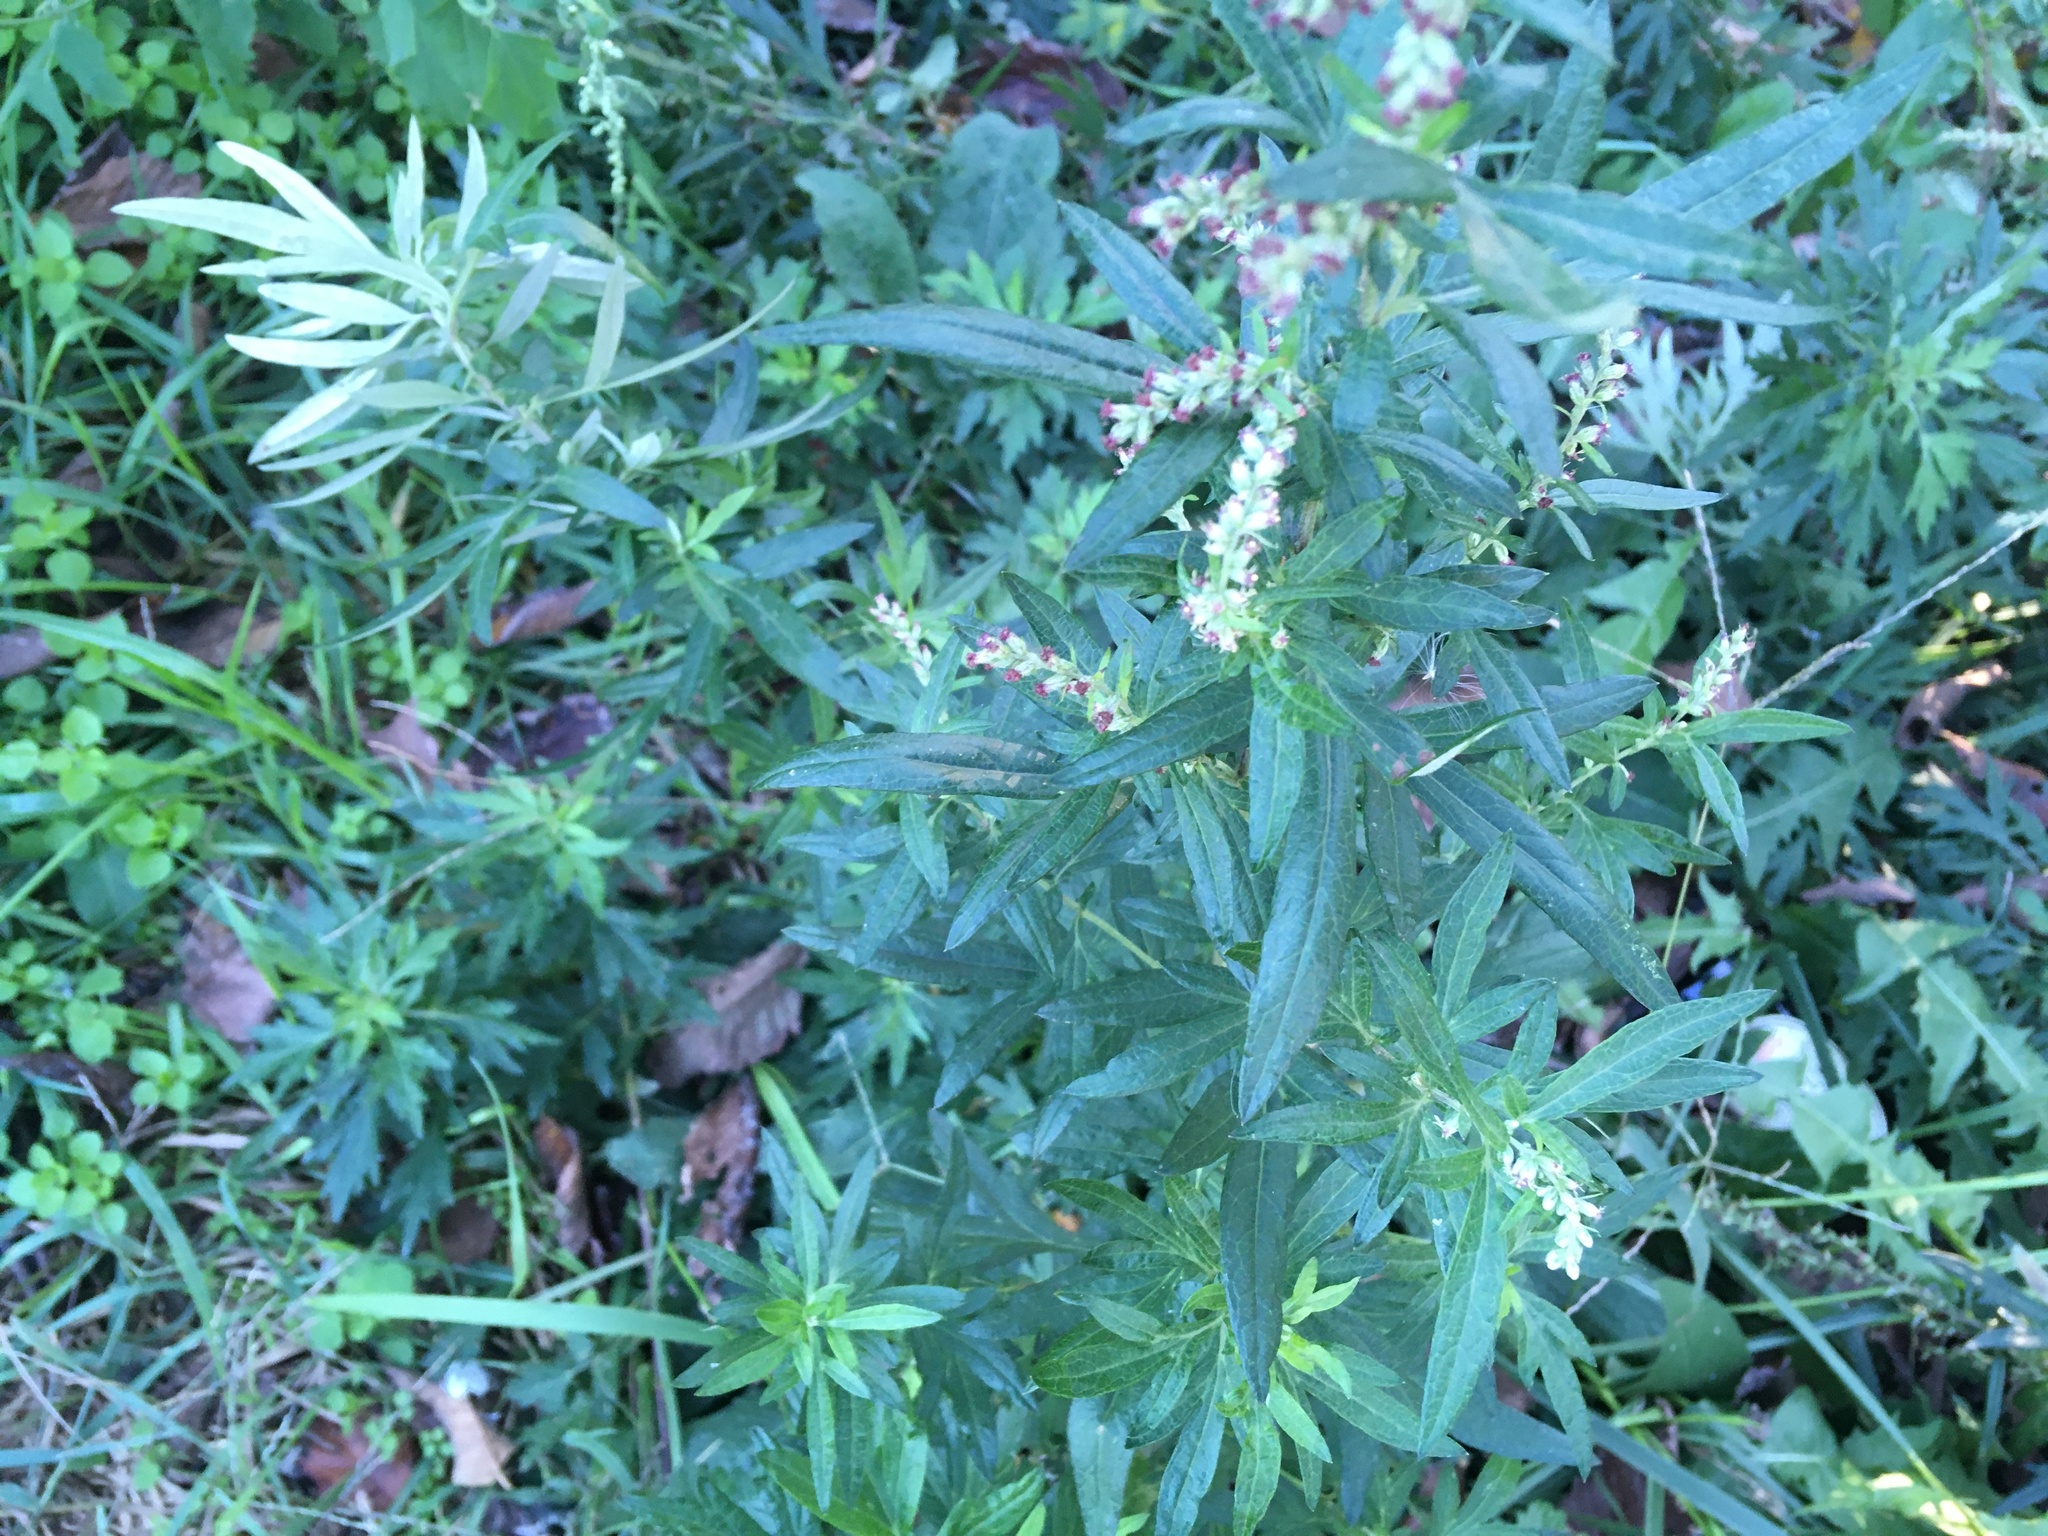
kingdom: Plantae
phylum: Tracheophyta
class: Magnoliopsida
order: Asterales
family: Asteraceae
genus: Artemisia
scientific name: Artemisia vulgaris
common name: Mugwort
